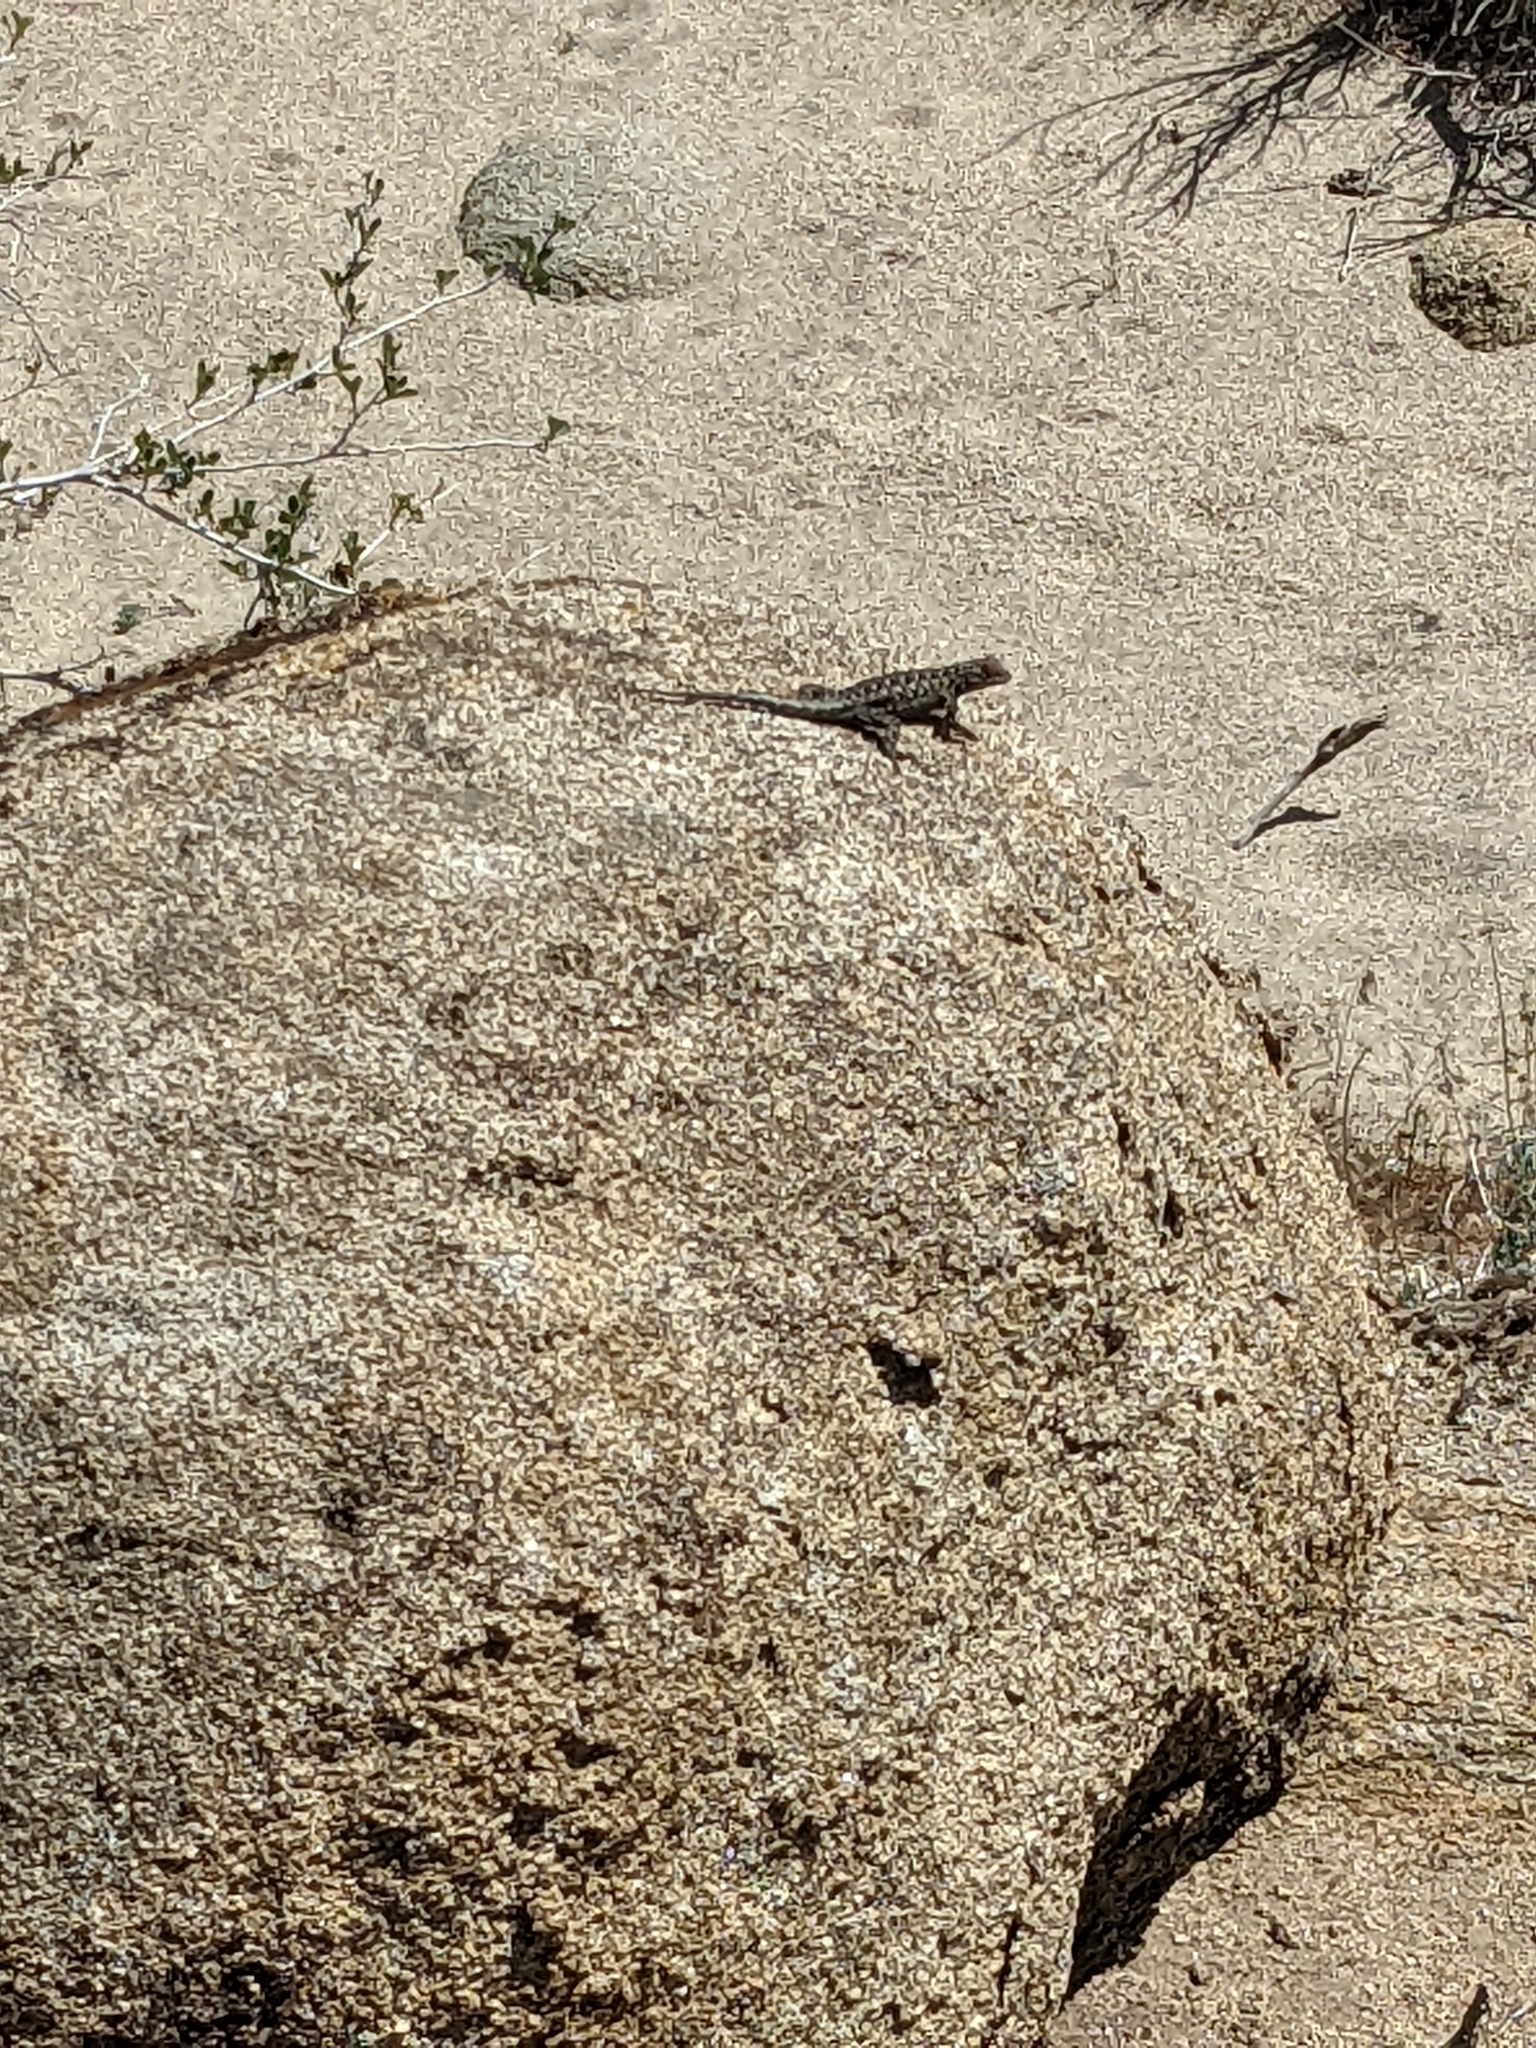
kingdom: Animalia
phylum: Chordata
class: Squamata
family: Phrynosomatidae
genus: Sceloporus
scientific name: Sceloporus occidentalis
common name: Western fence lizard
